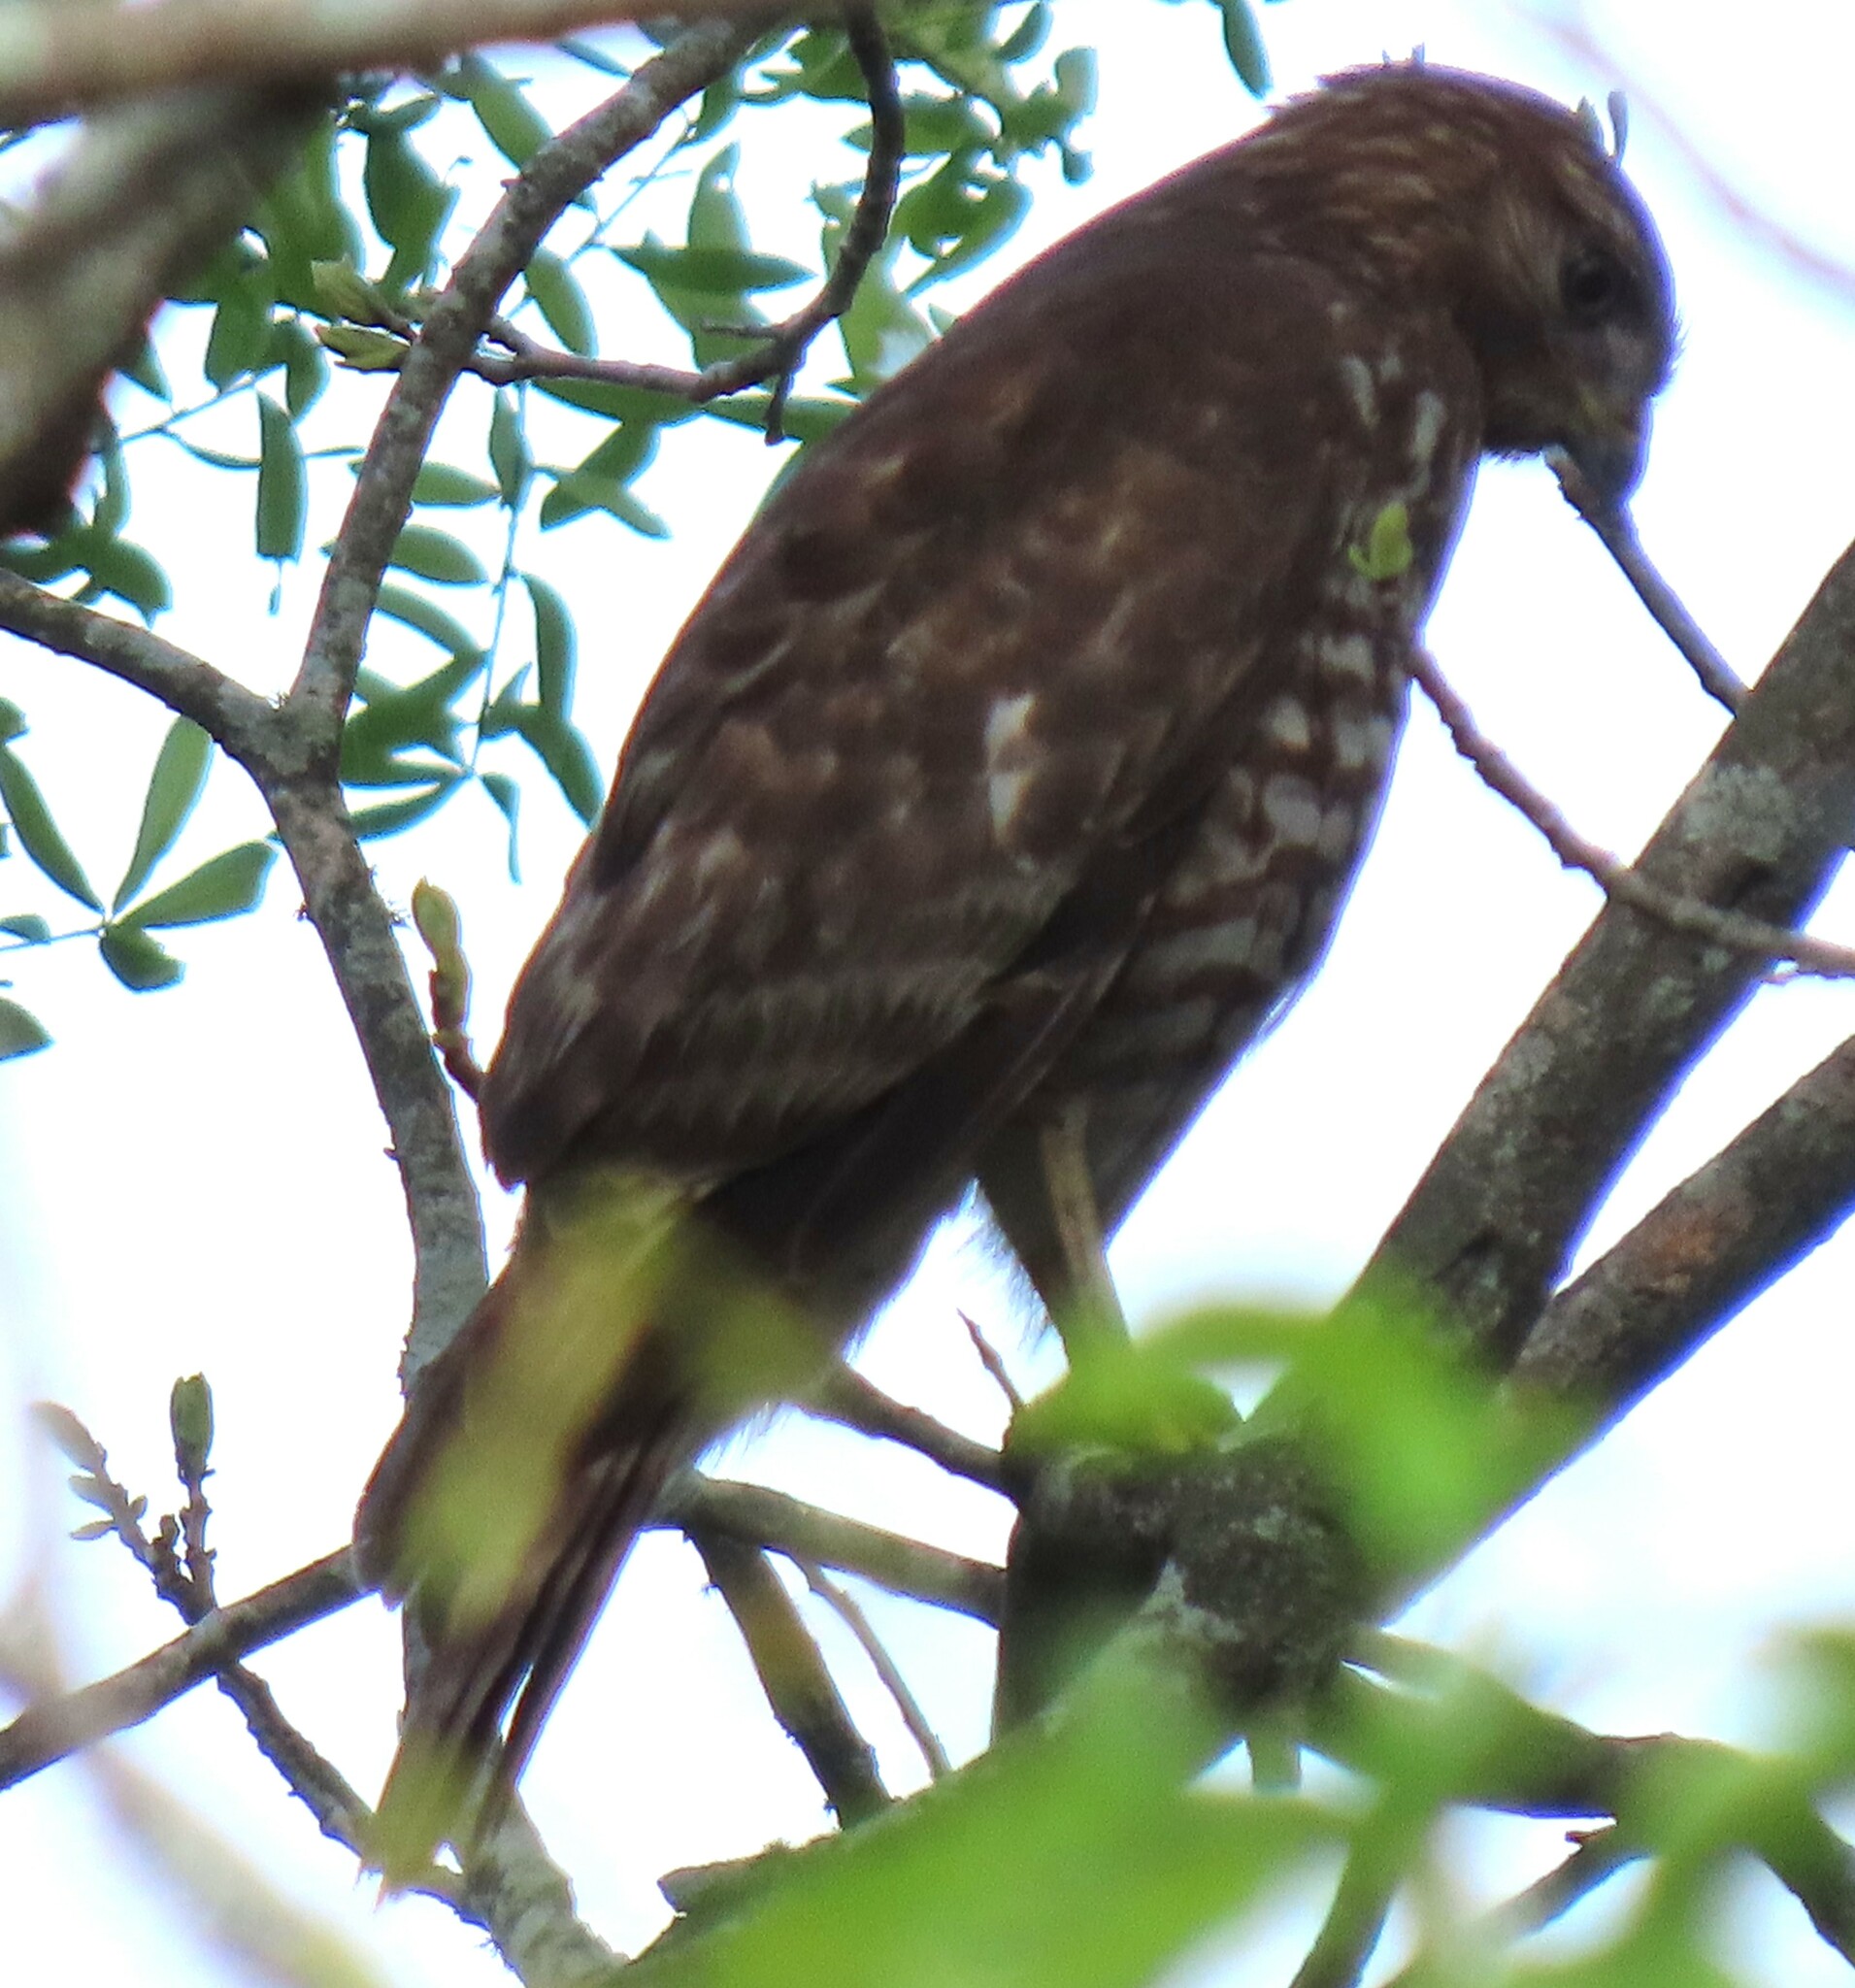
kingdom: Animalia
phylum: Chordata
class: Aves
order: Accipitriformes
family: Accipitridae
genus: Buteo
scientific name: Buteo lineatus
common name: Red-shouldered hawk
